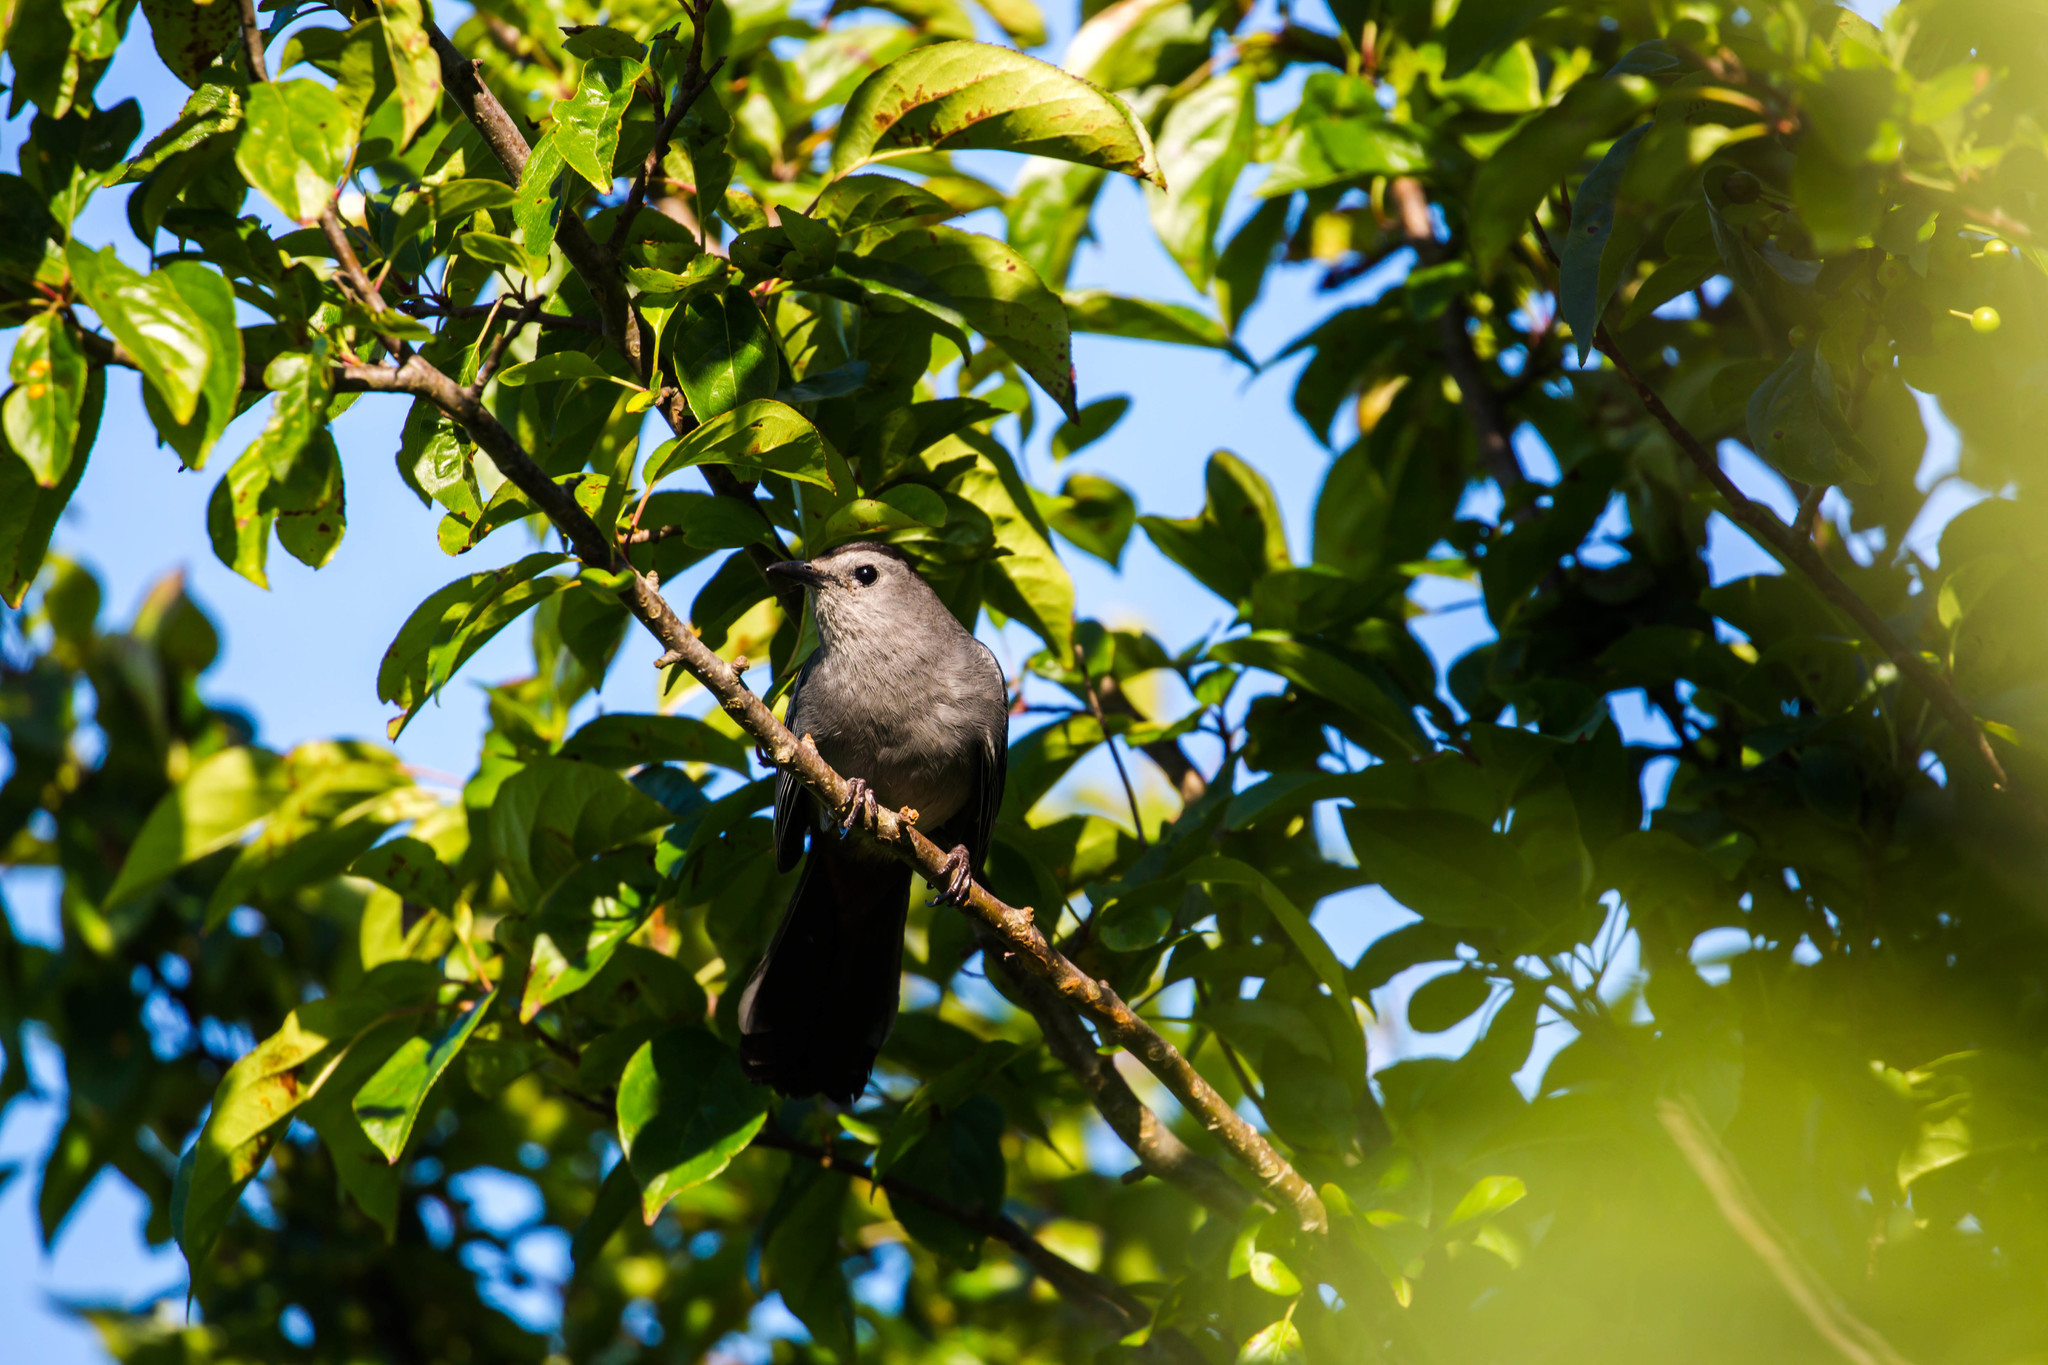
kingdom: Animalia
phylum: Chordata
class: Aves
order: Passeriformes
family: Mimidae
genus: Dumetella
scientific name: Dumetella carolinensis
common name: Gray catbird
